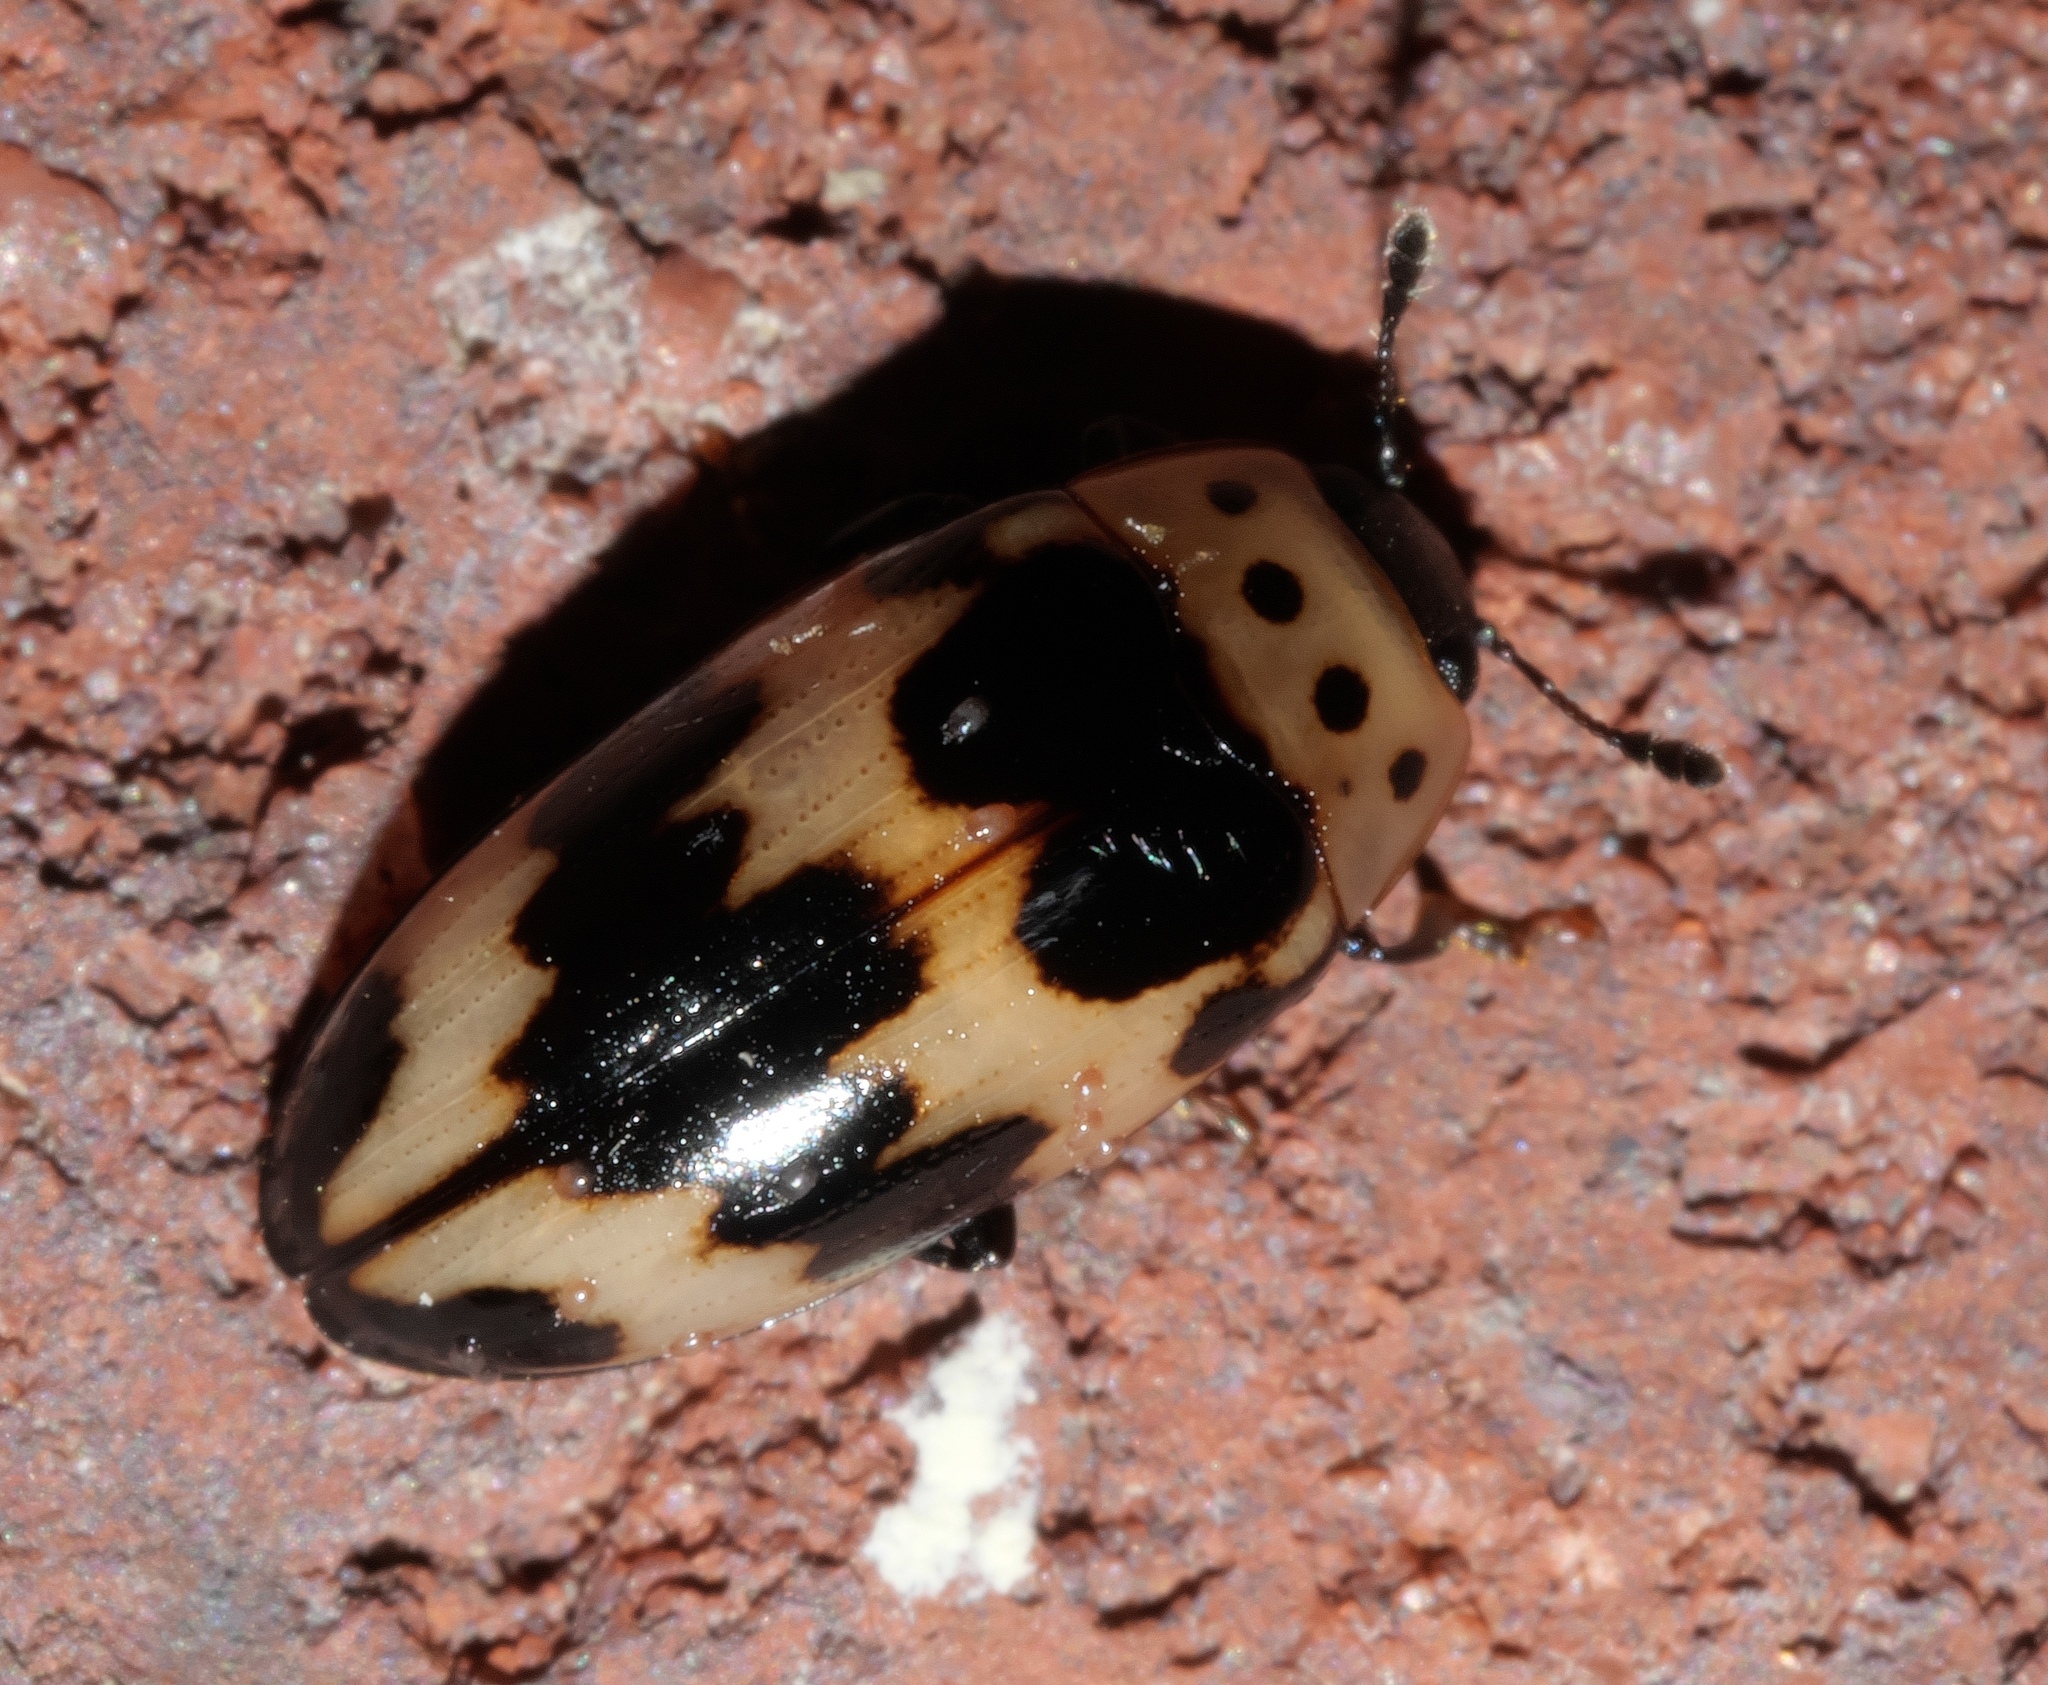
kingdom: Animalia
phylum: Arthropoda
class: Insecta
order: Coleoptera
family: Erotylidae
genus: Ischyrus
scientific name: Ischyrus quadripunctatus
